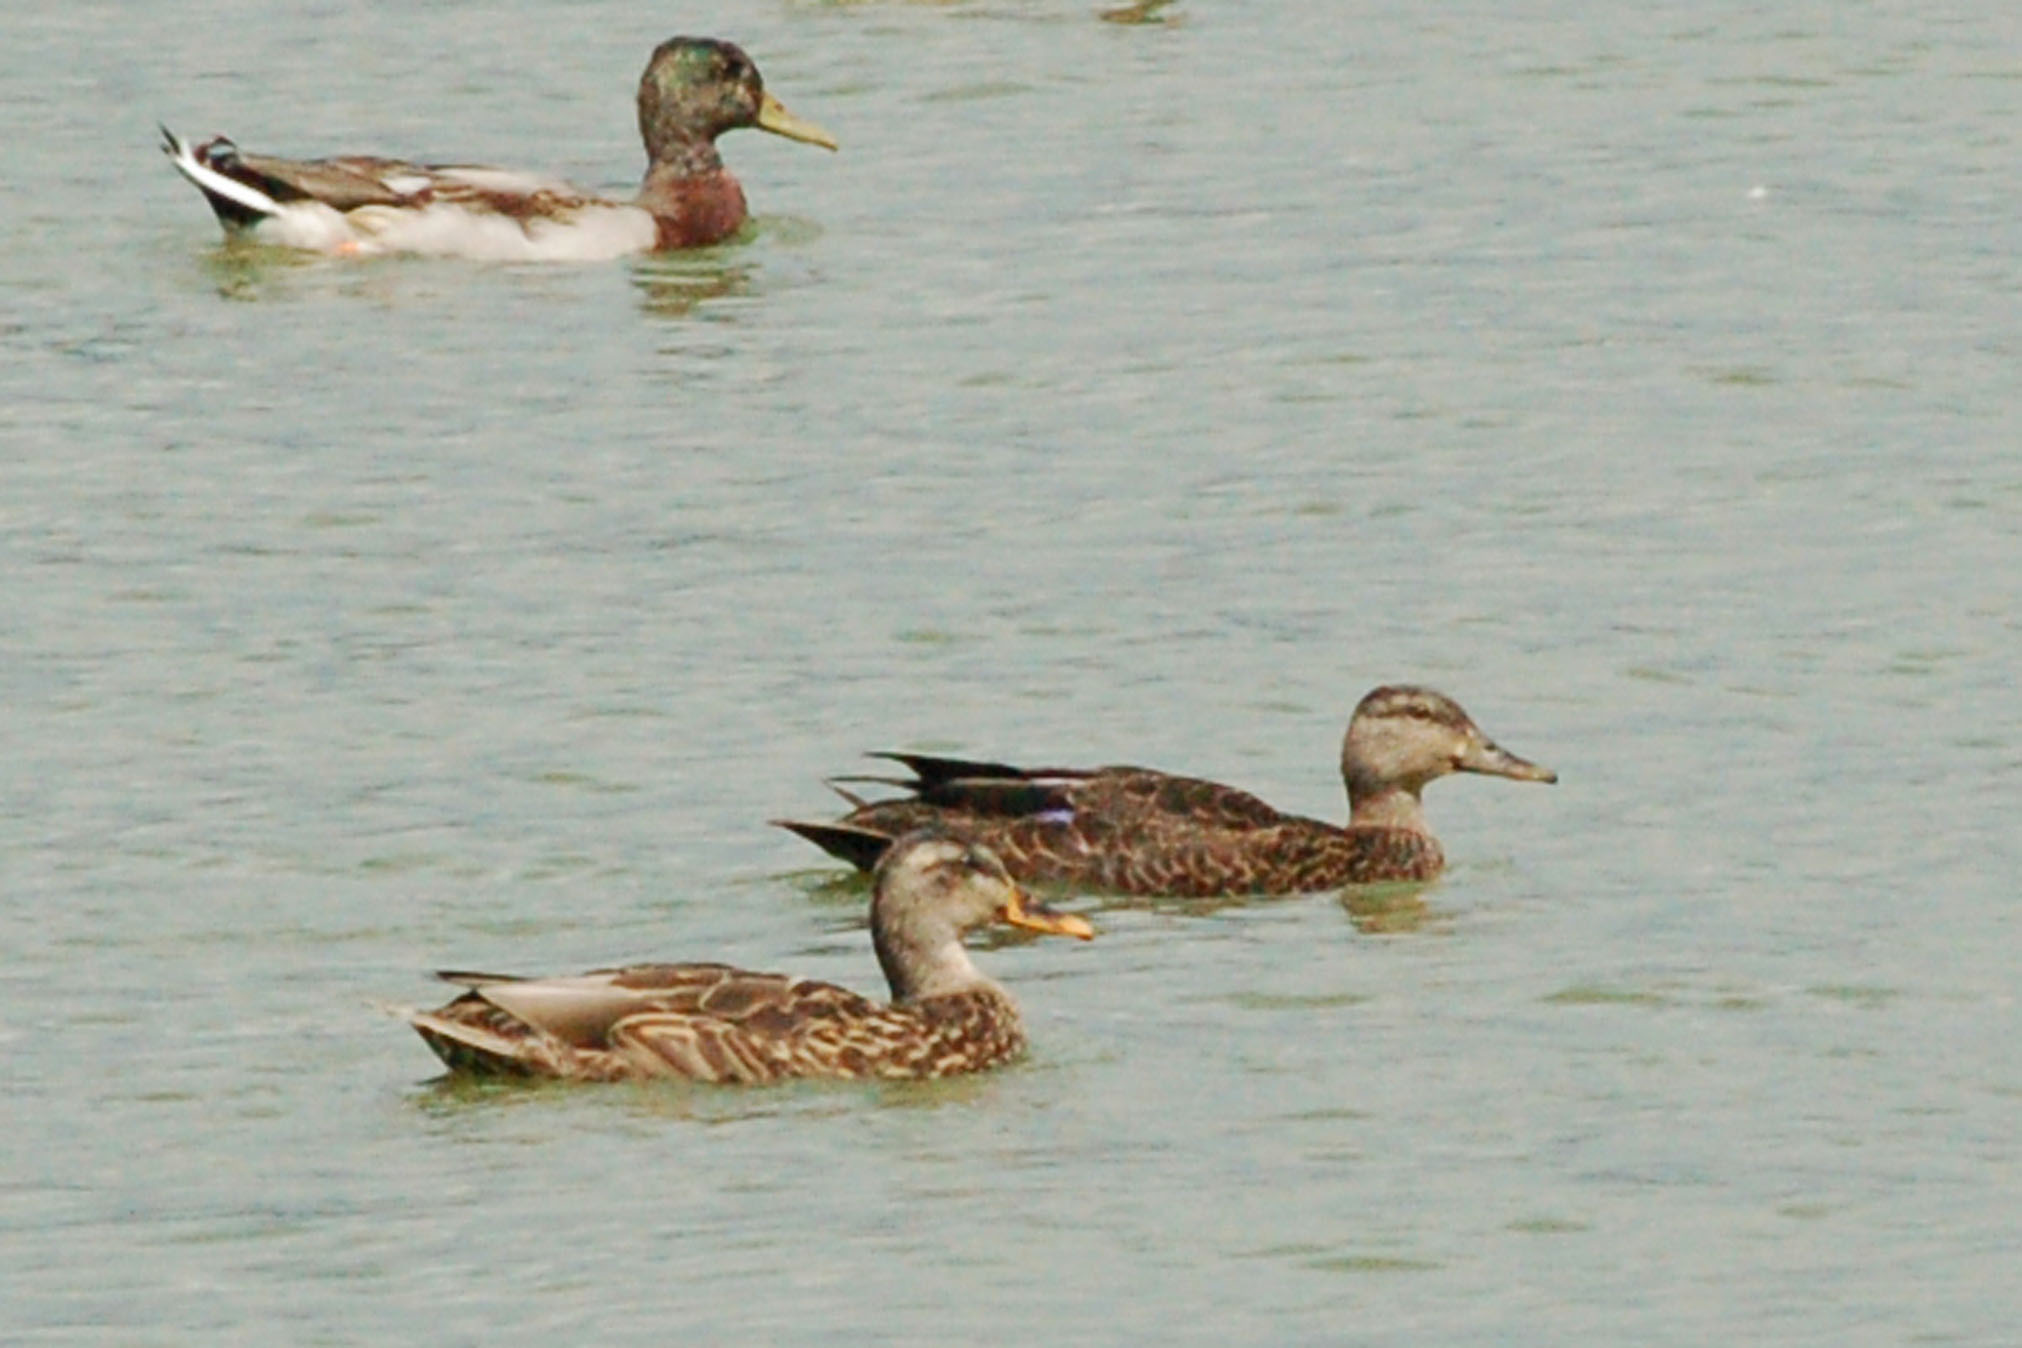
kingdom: Animalia
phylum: Chordata
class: Aves
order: Anseriformes
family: Anatidae
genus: Anas
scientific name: Anas
